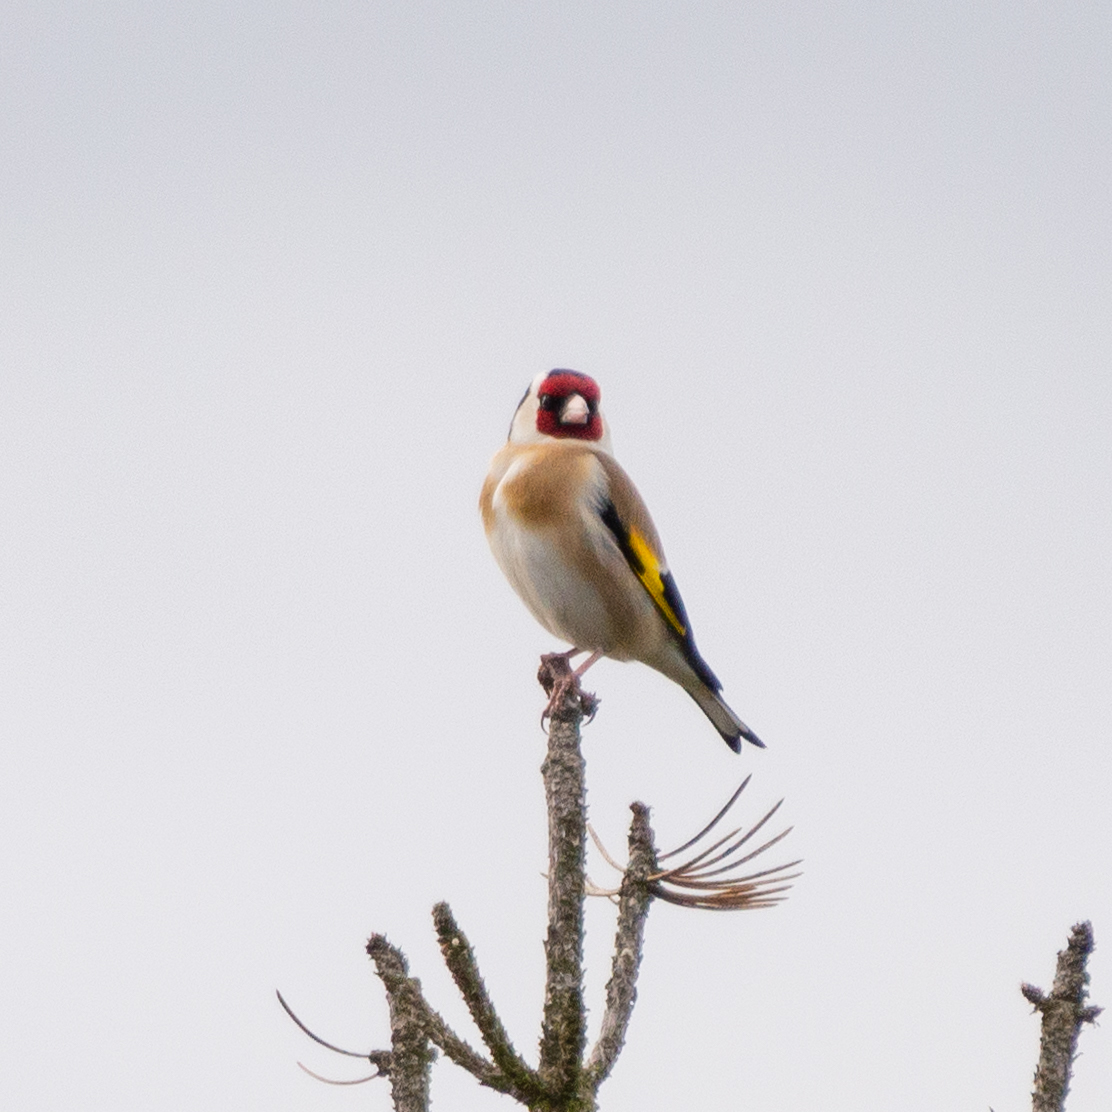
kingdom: Animalia
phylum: Chordata
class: Aves
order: Passeriformes
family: Fringillidae
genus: Carduelis
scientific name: Carduelis carduelis
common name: European goldfinch
